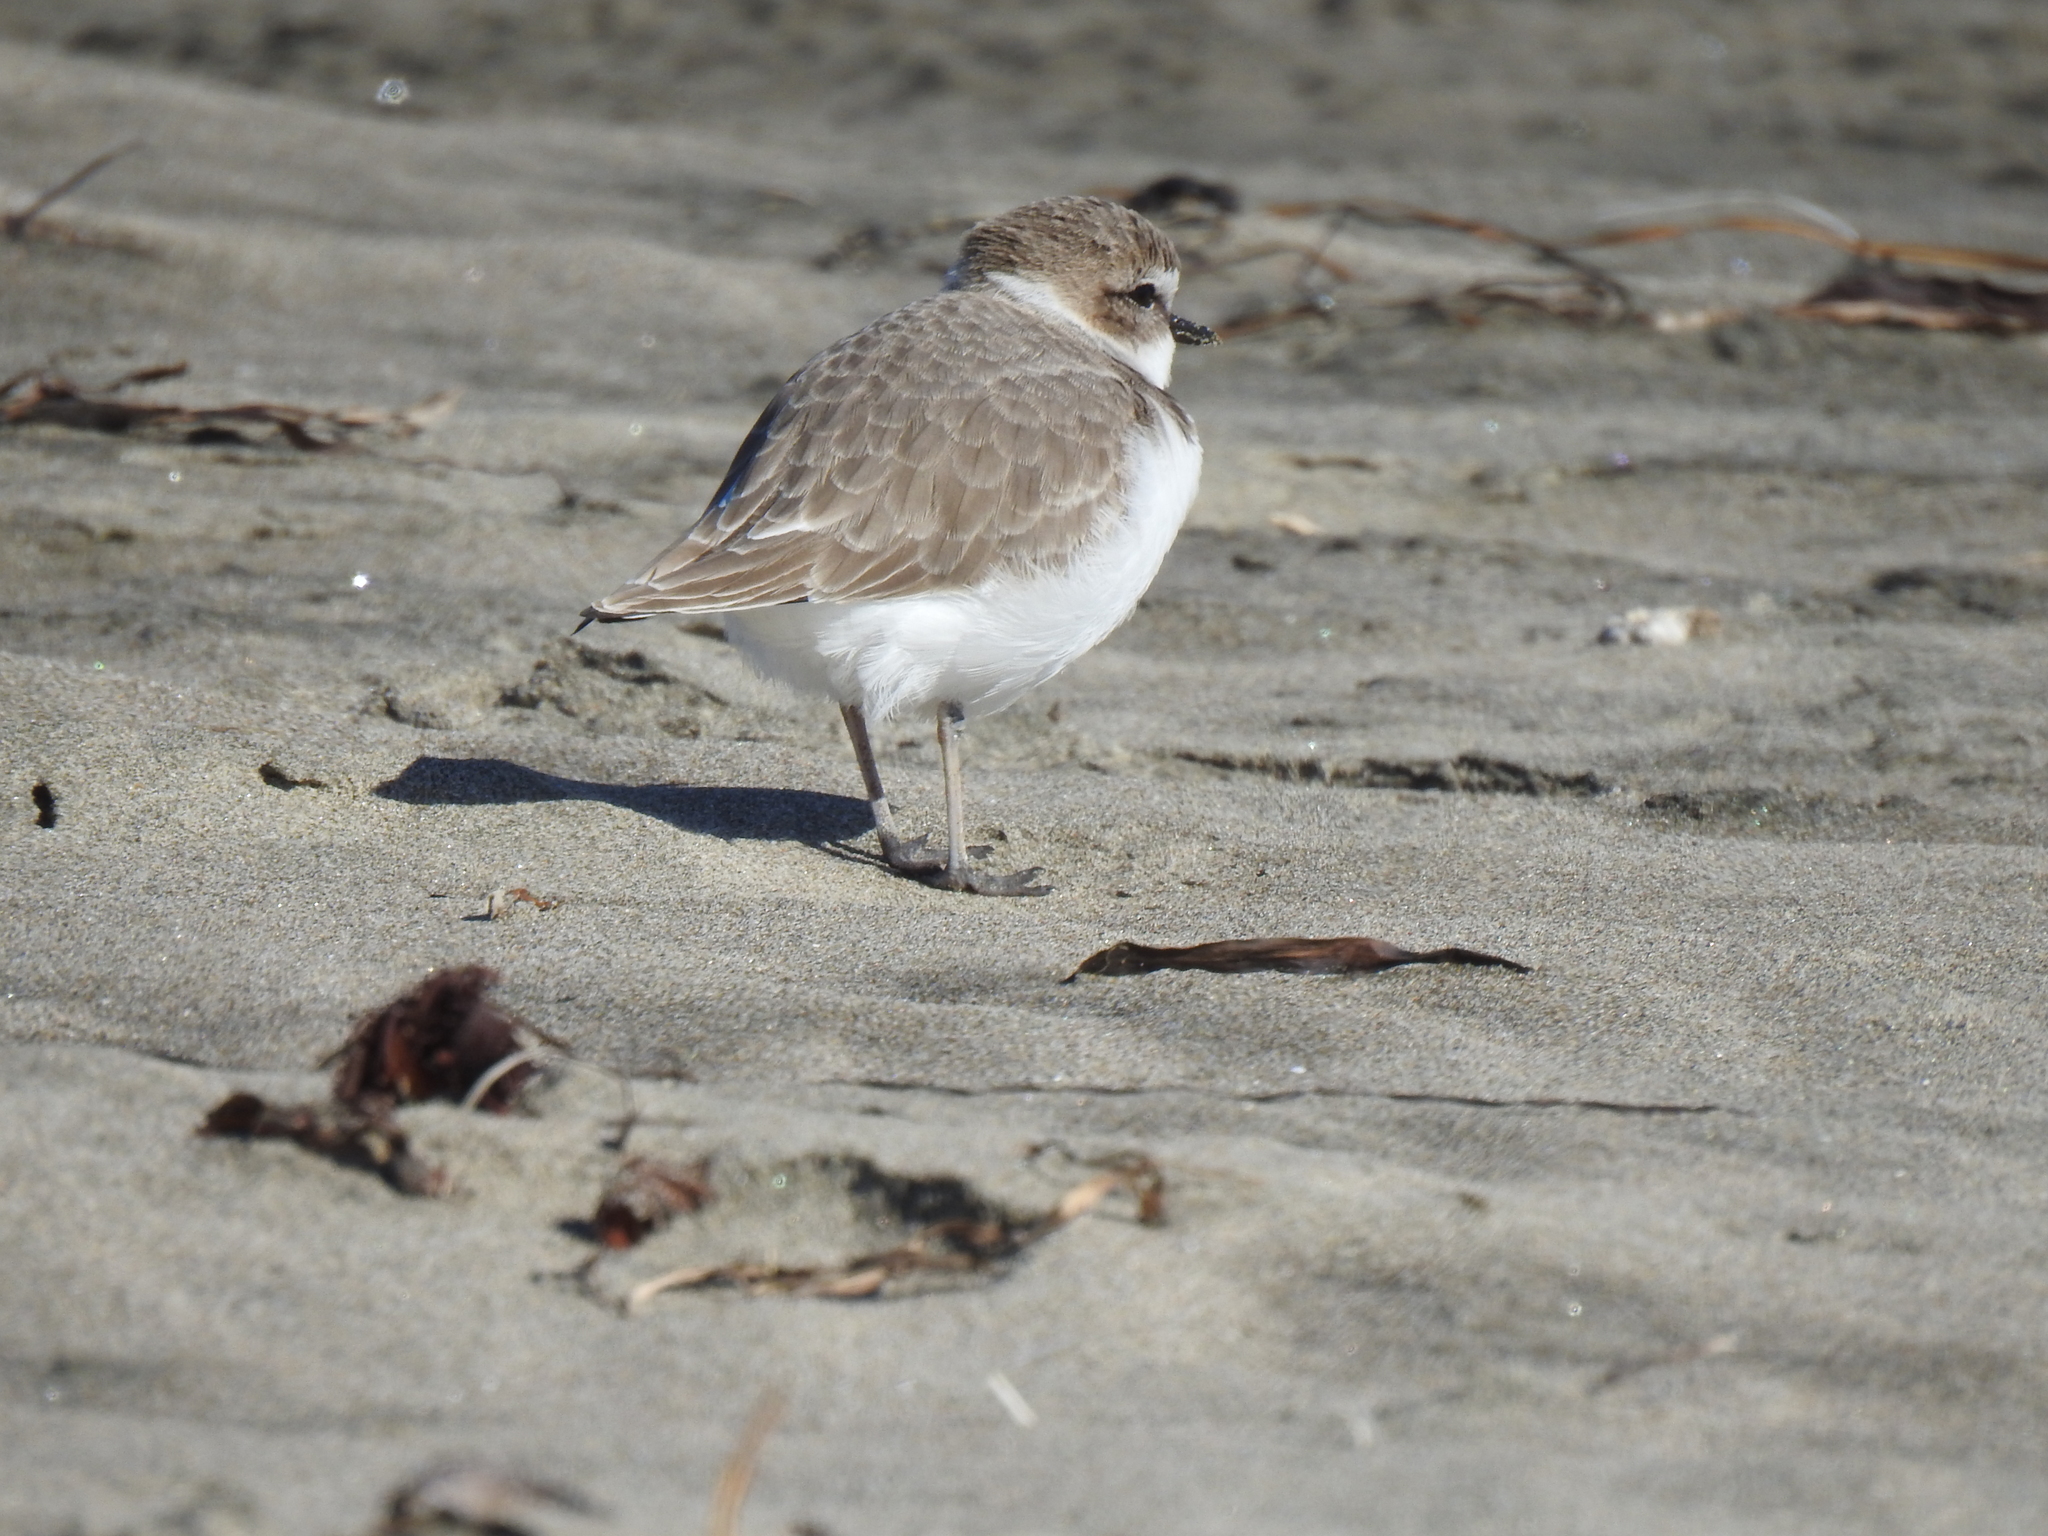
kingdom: Animalia
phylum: Chordata
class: Aves
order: Charadriiformes
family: Charadriidae
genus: Anarhynchus
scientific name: Anarhynchus
